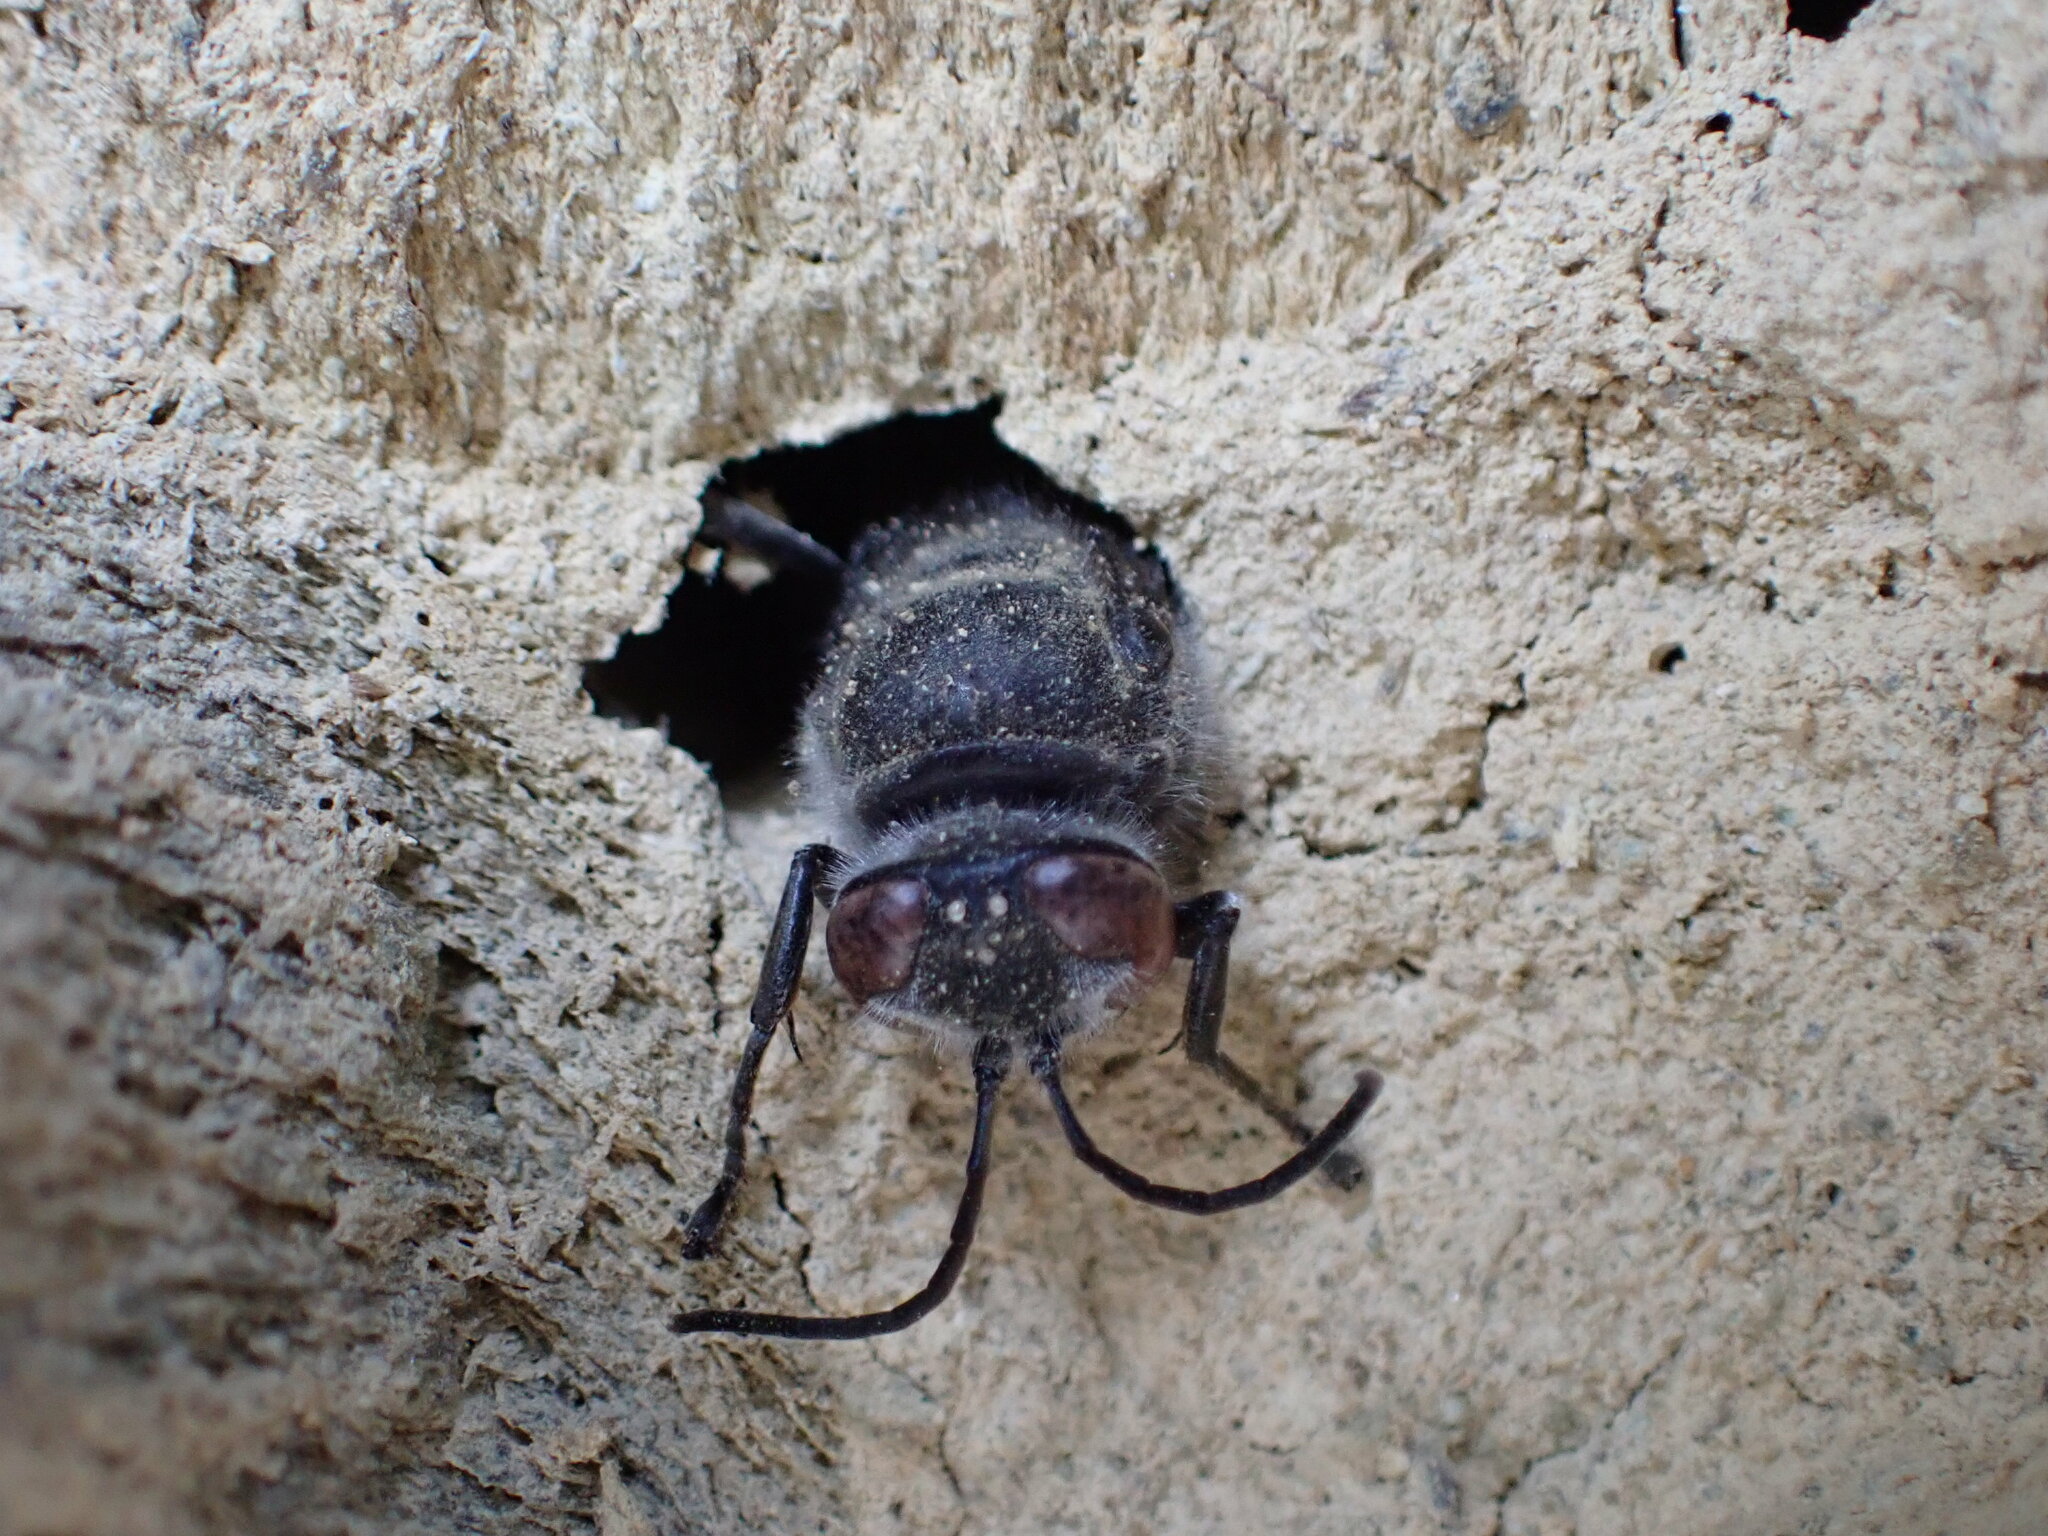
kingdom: Animalia
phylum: Arthropoda
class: Insecta
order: Hymenoptera
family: Crabronidae
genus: Pison
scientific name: Pison spinolae
